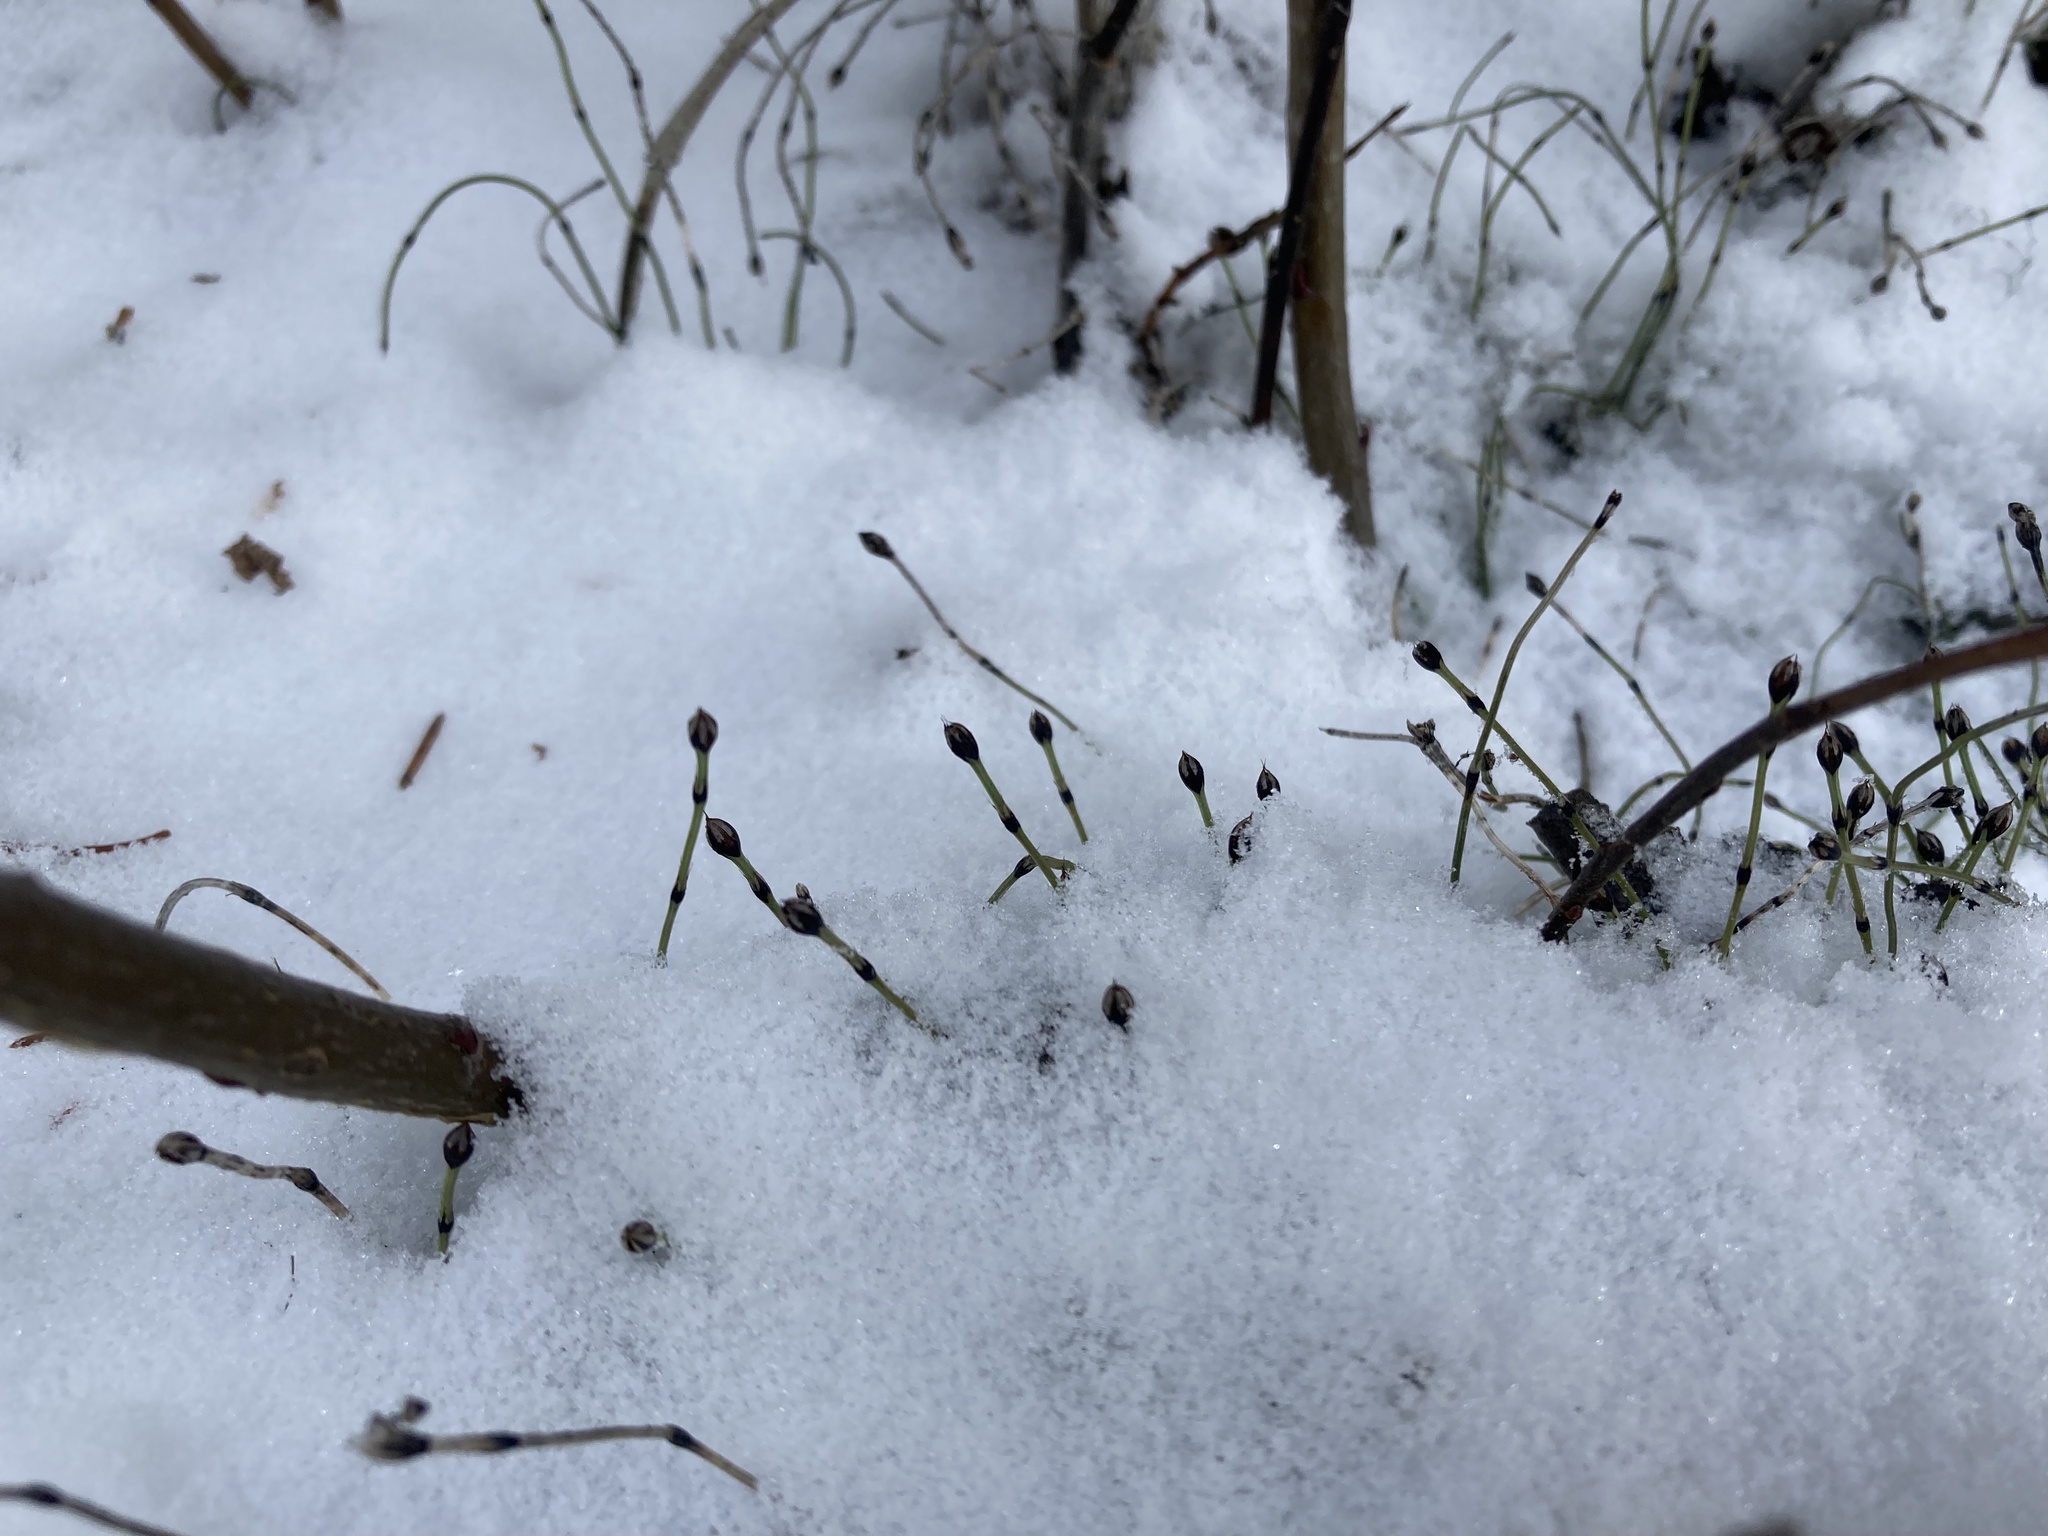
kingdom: Plantae
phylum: Tracheophyta
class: Polypodiopsida
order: Equisetales
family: Equisetaceae
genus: Equisetum
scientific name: Equisetum scirpoides
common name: Delicate horsetail
